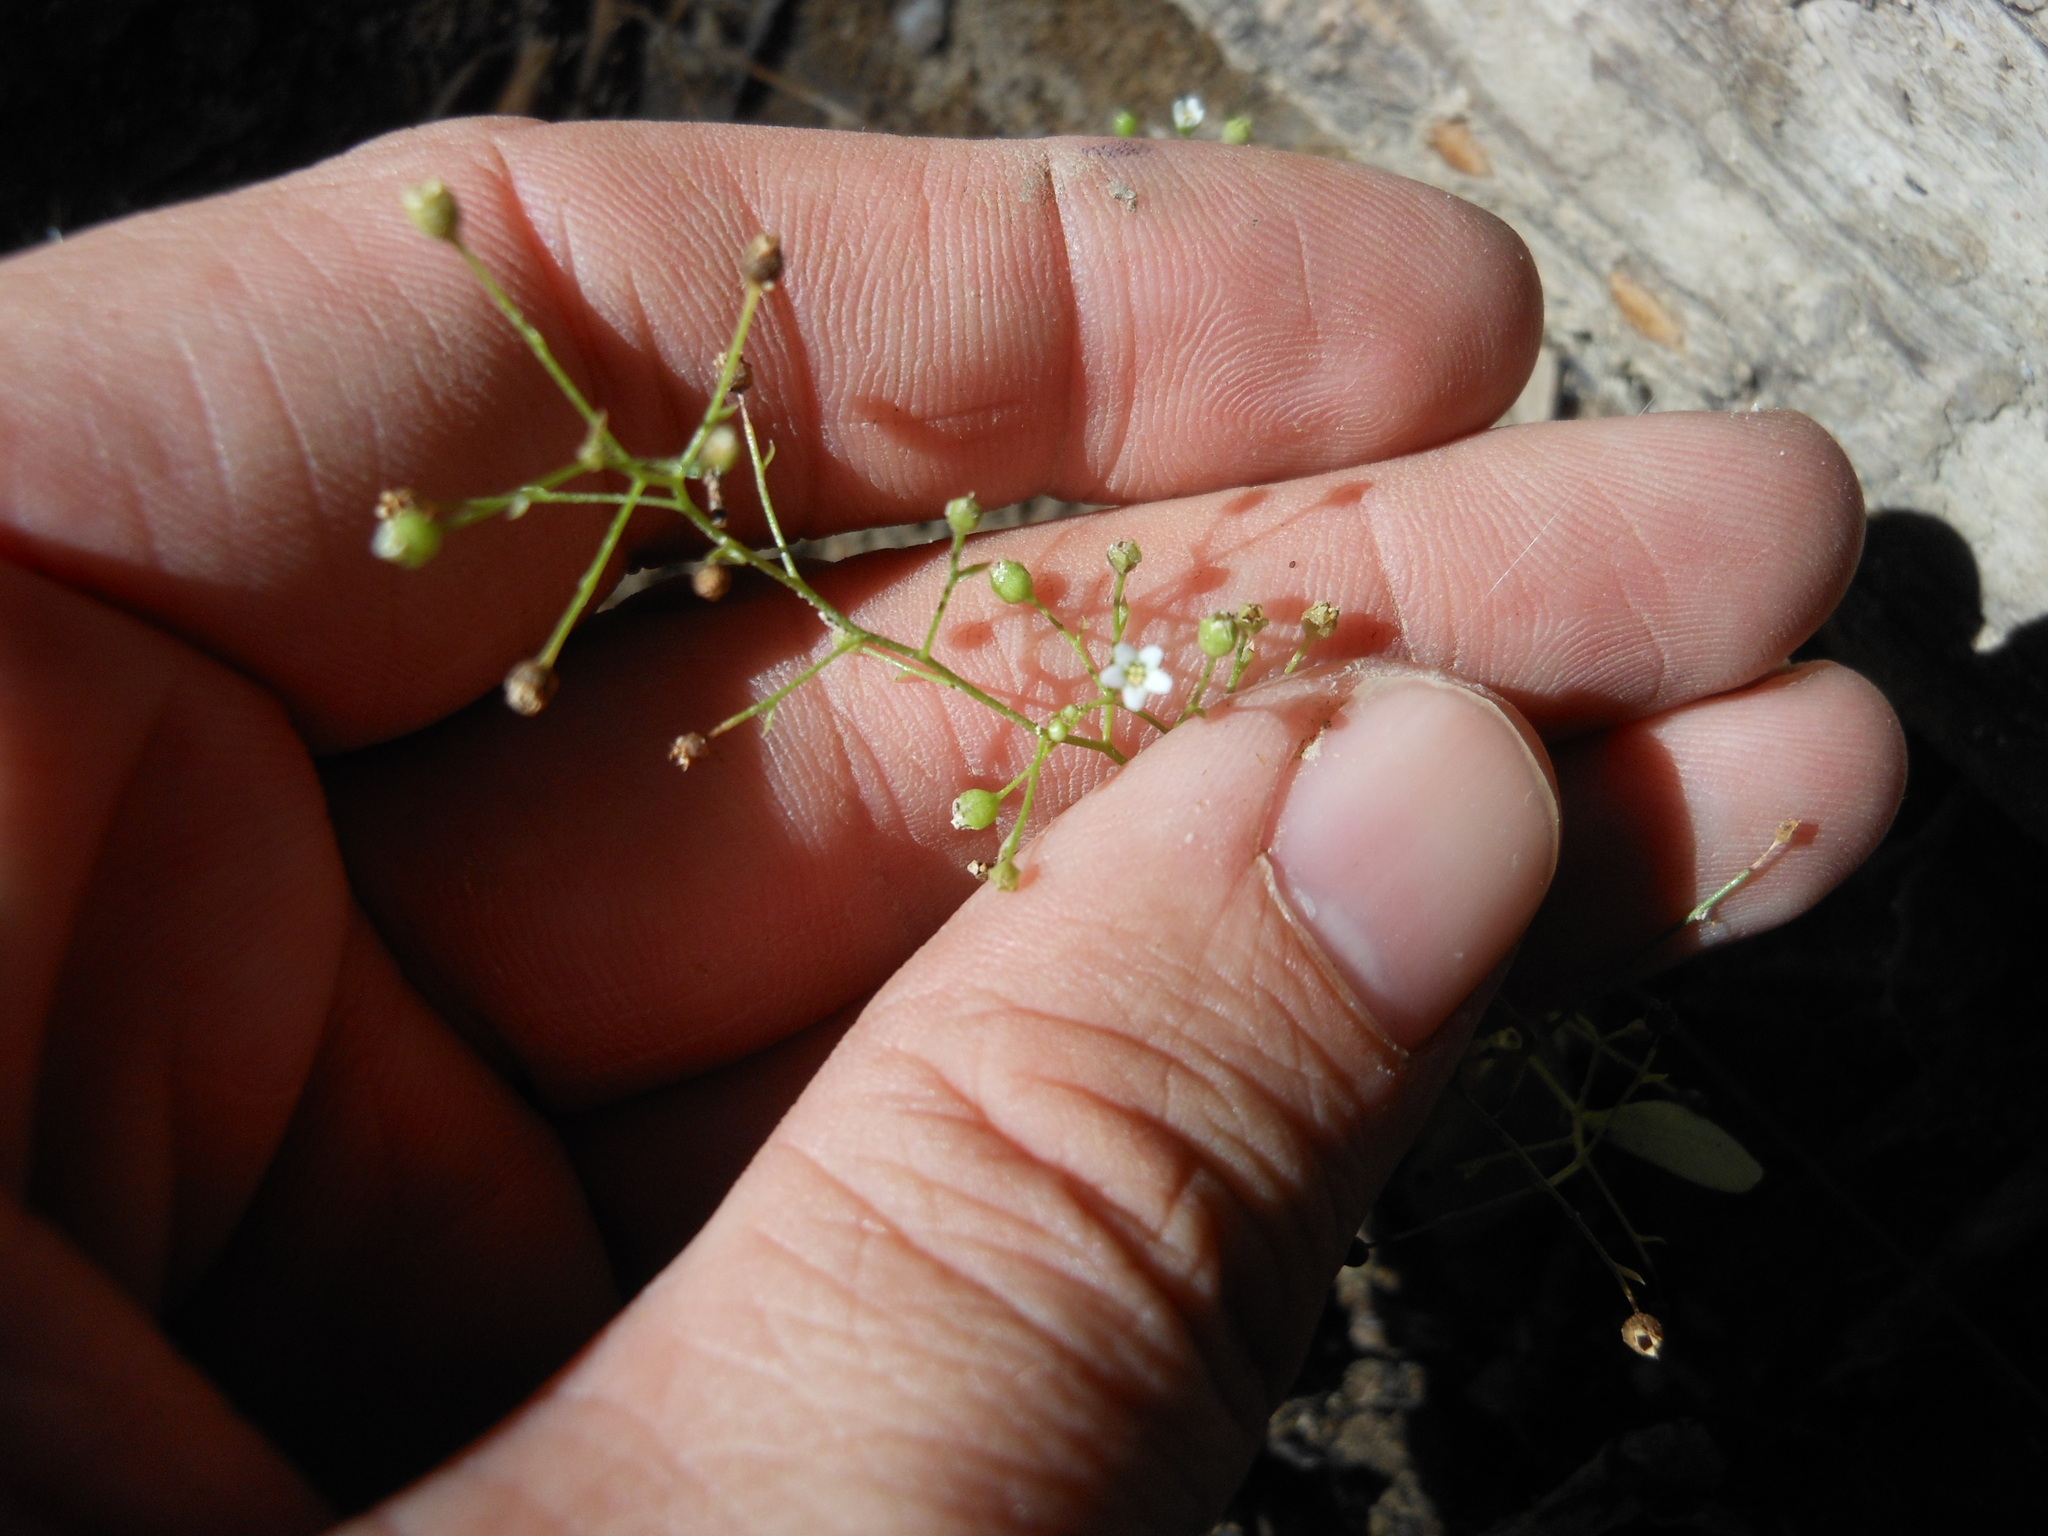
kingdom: Plantae
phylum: Tracheophyta
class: Magnoliopsida
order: Ericales
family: Primulaceae
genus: Samolus
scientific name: Samolus parviflorus
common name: False water pimpernel
